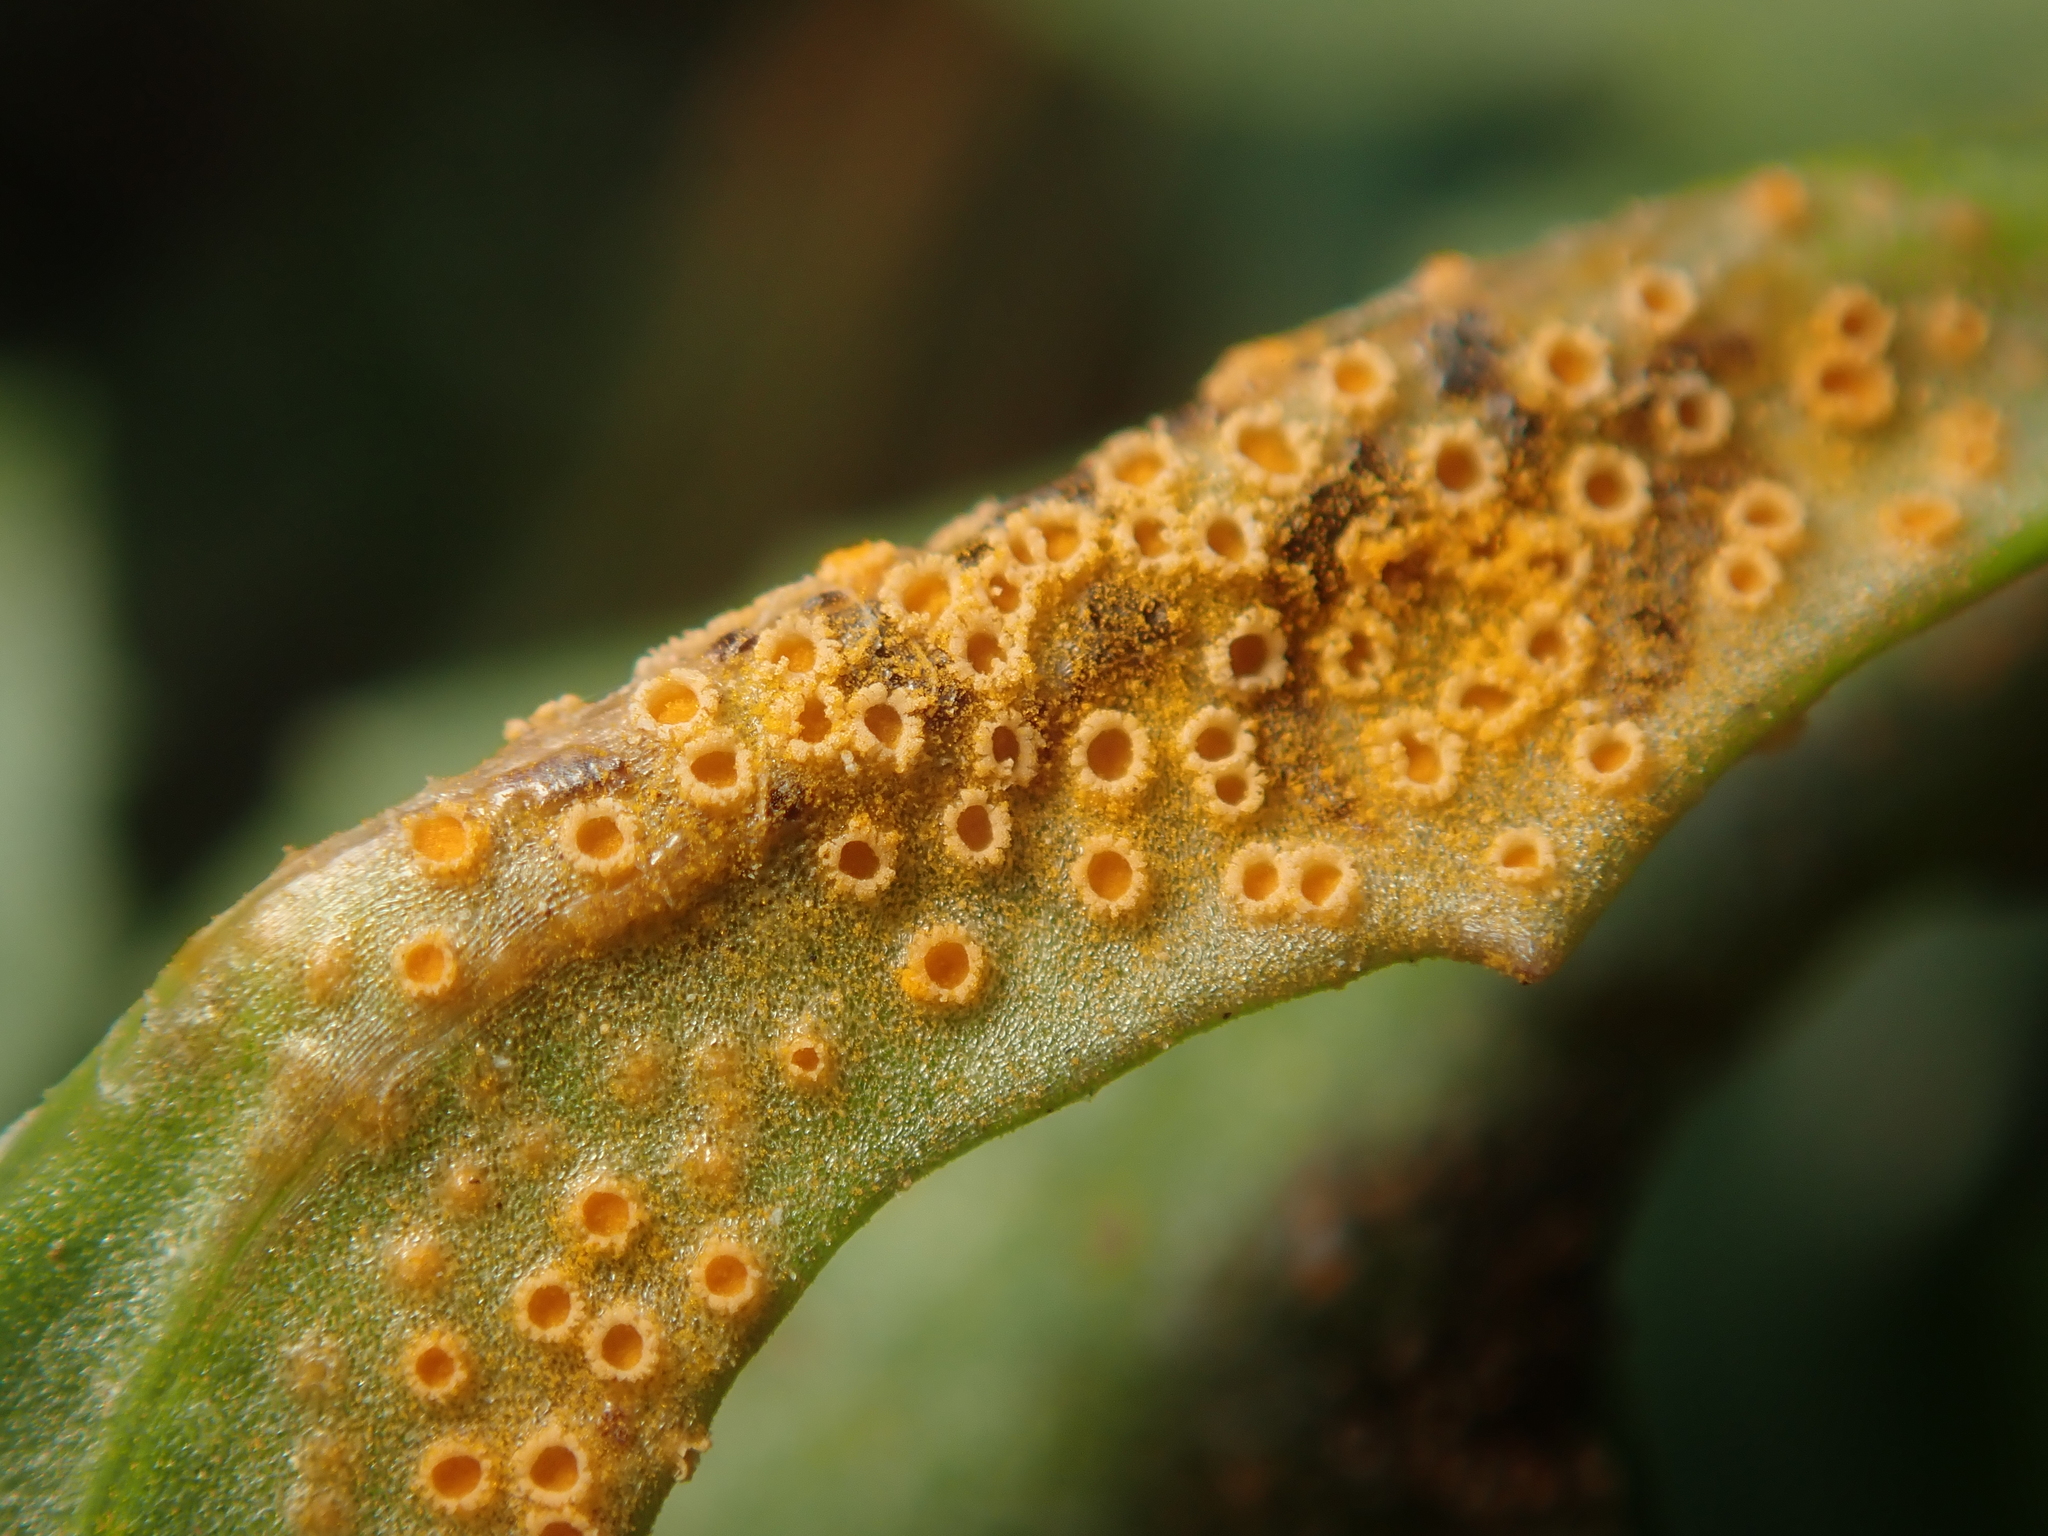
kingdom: Fungi
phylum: Basidiomycota
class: Pucciniomycetes
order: Pucciniales
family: Pucciniaceae
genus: Puccinia
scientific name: Puccinia lagenophorae
